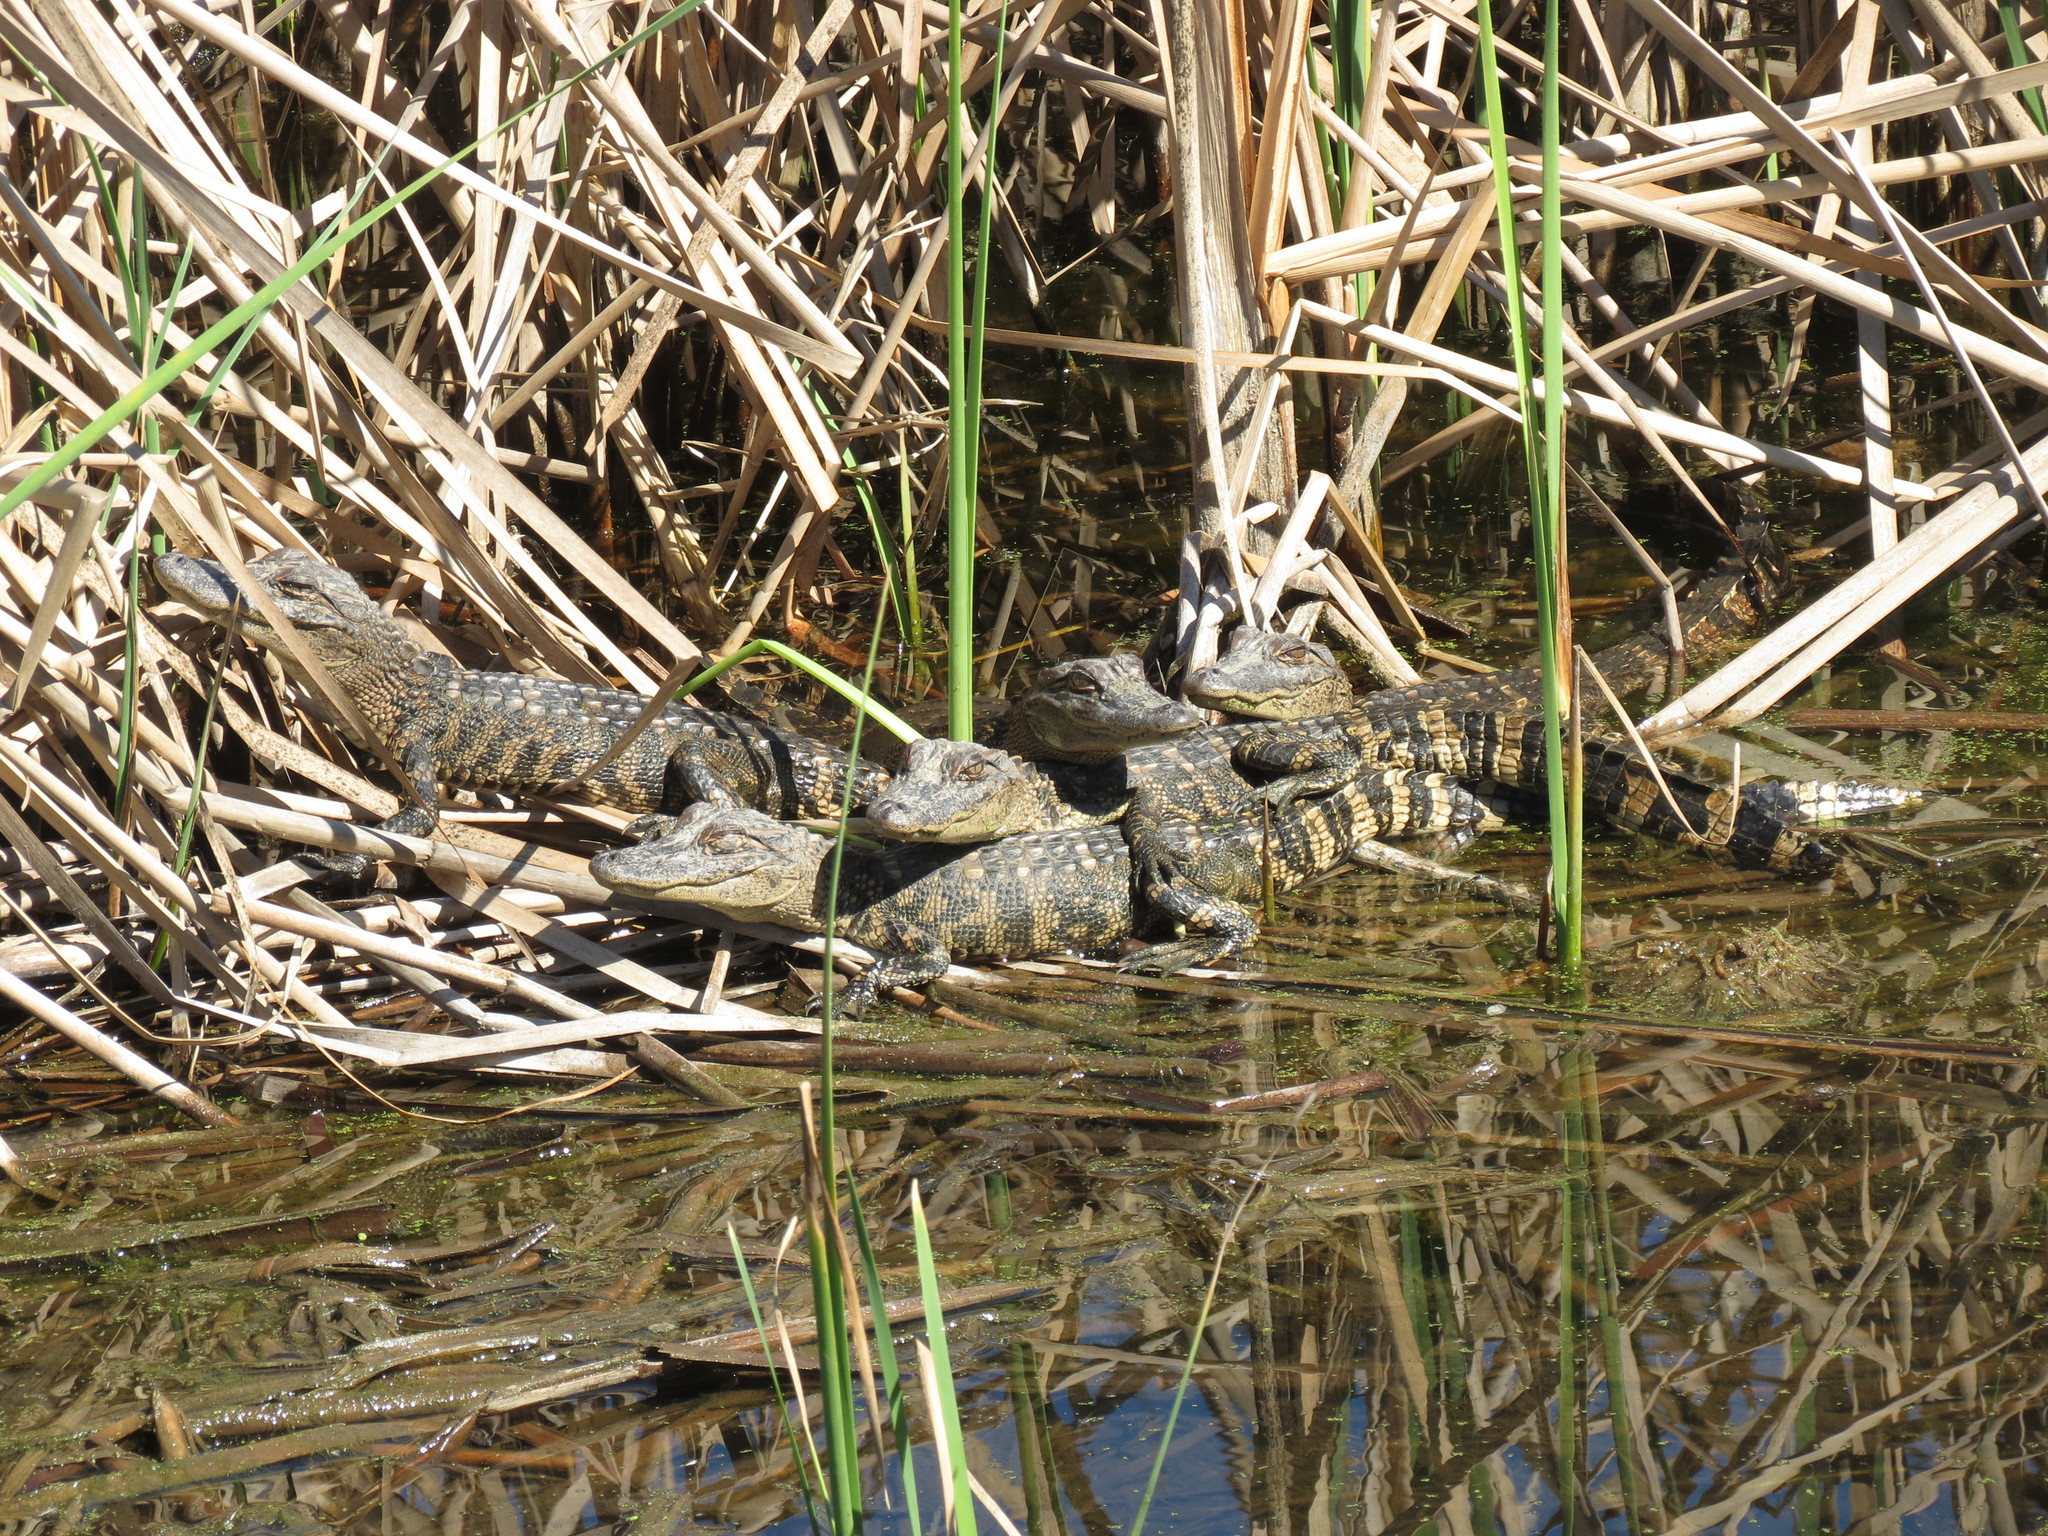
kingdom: Animalia
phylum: Chordata
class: Crocodylia
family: Alligatoridae
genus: Alligator
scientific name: Alligator mississippiensis
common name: American alligator
